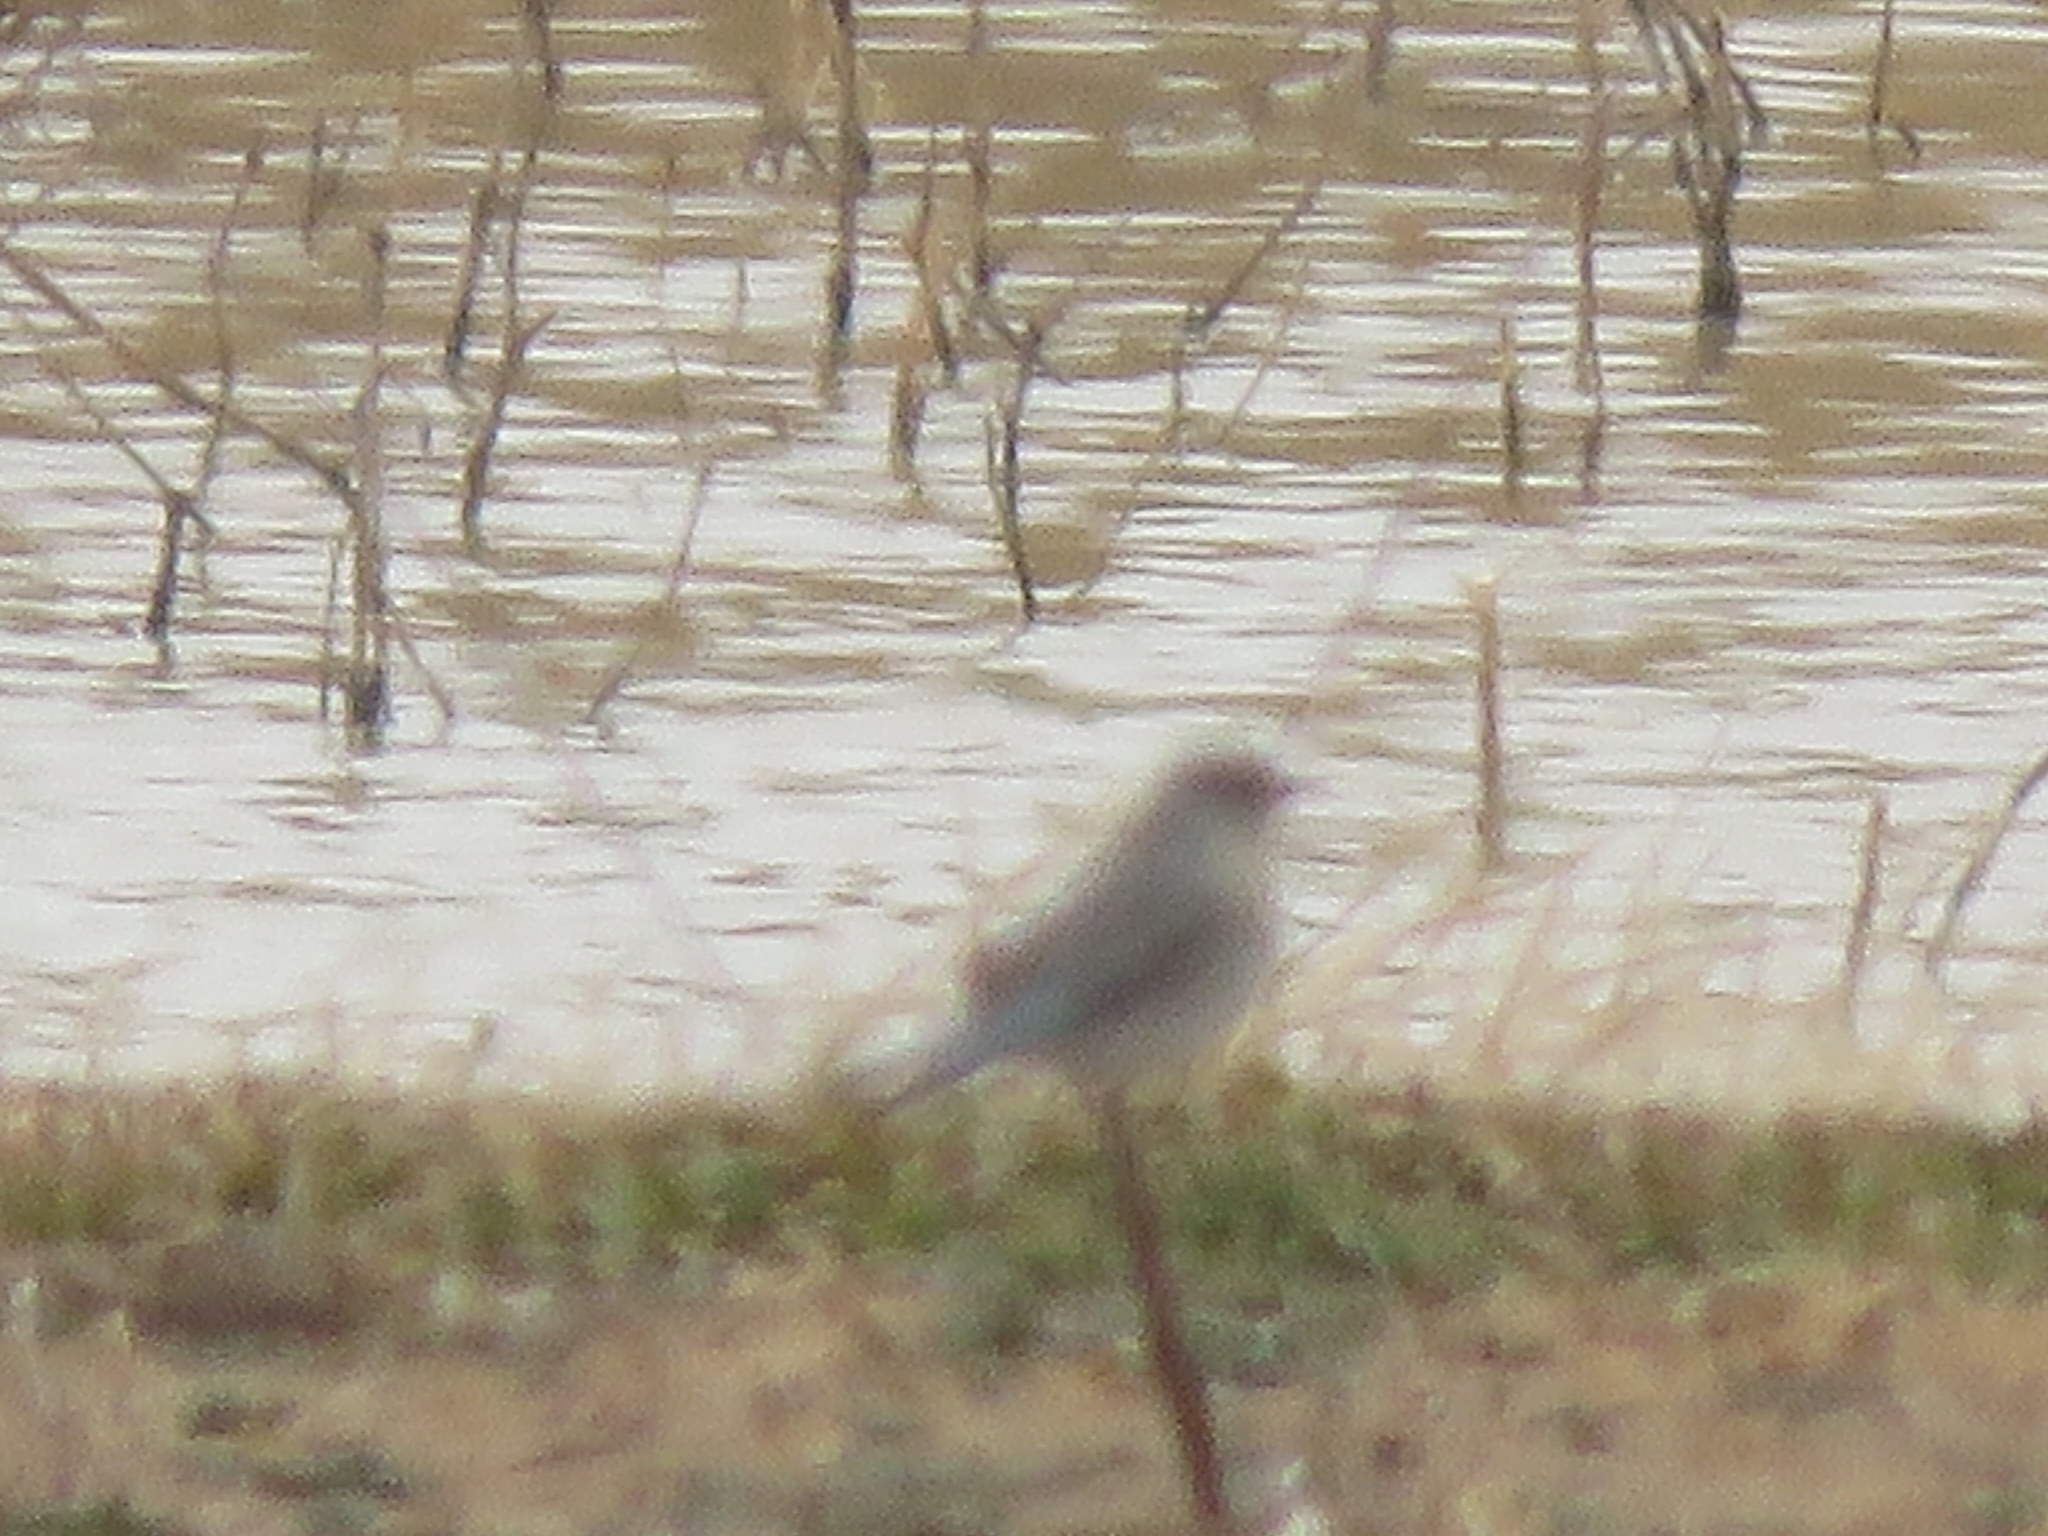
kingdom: Animalia
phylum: Chordata
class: Aves
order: Passeriformes
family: Turdidae
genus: Sialia
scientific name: Sialia currucoides
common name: Mountain bluebird
